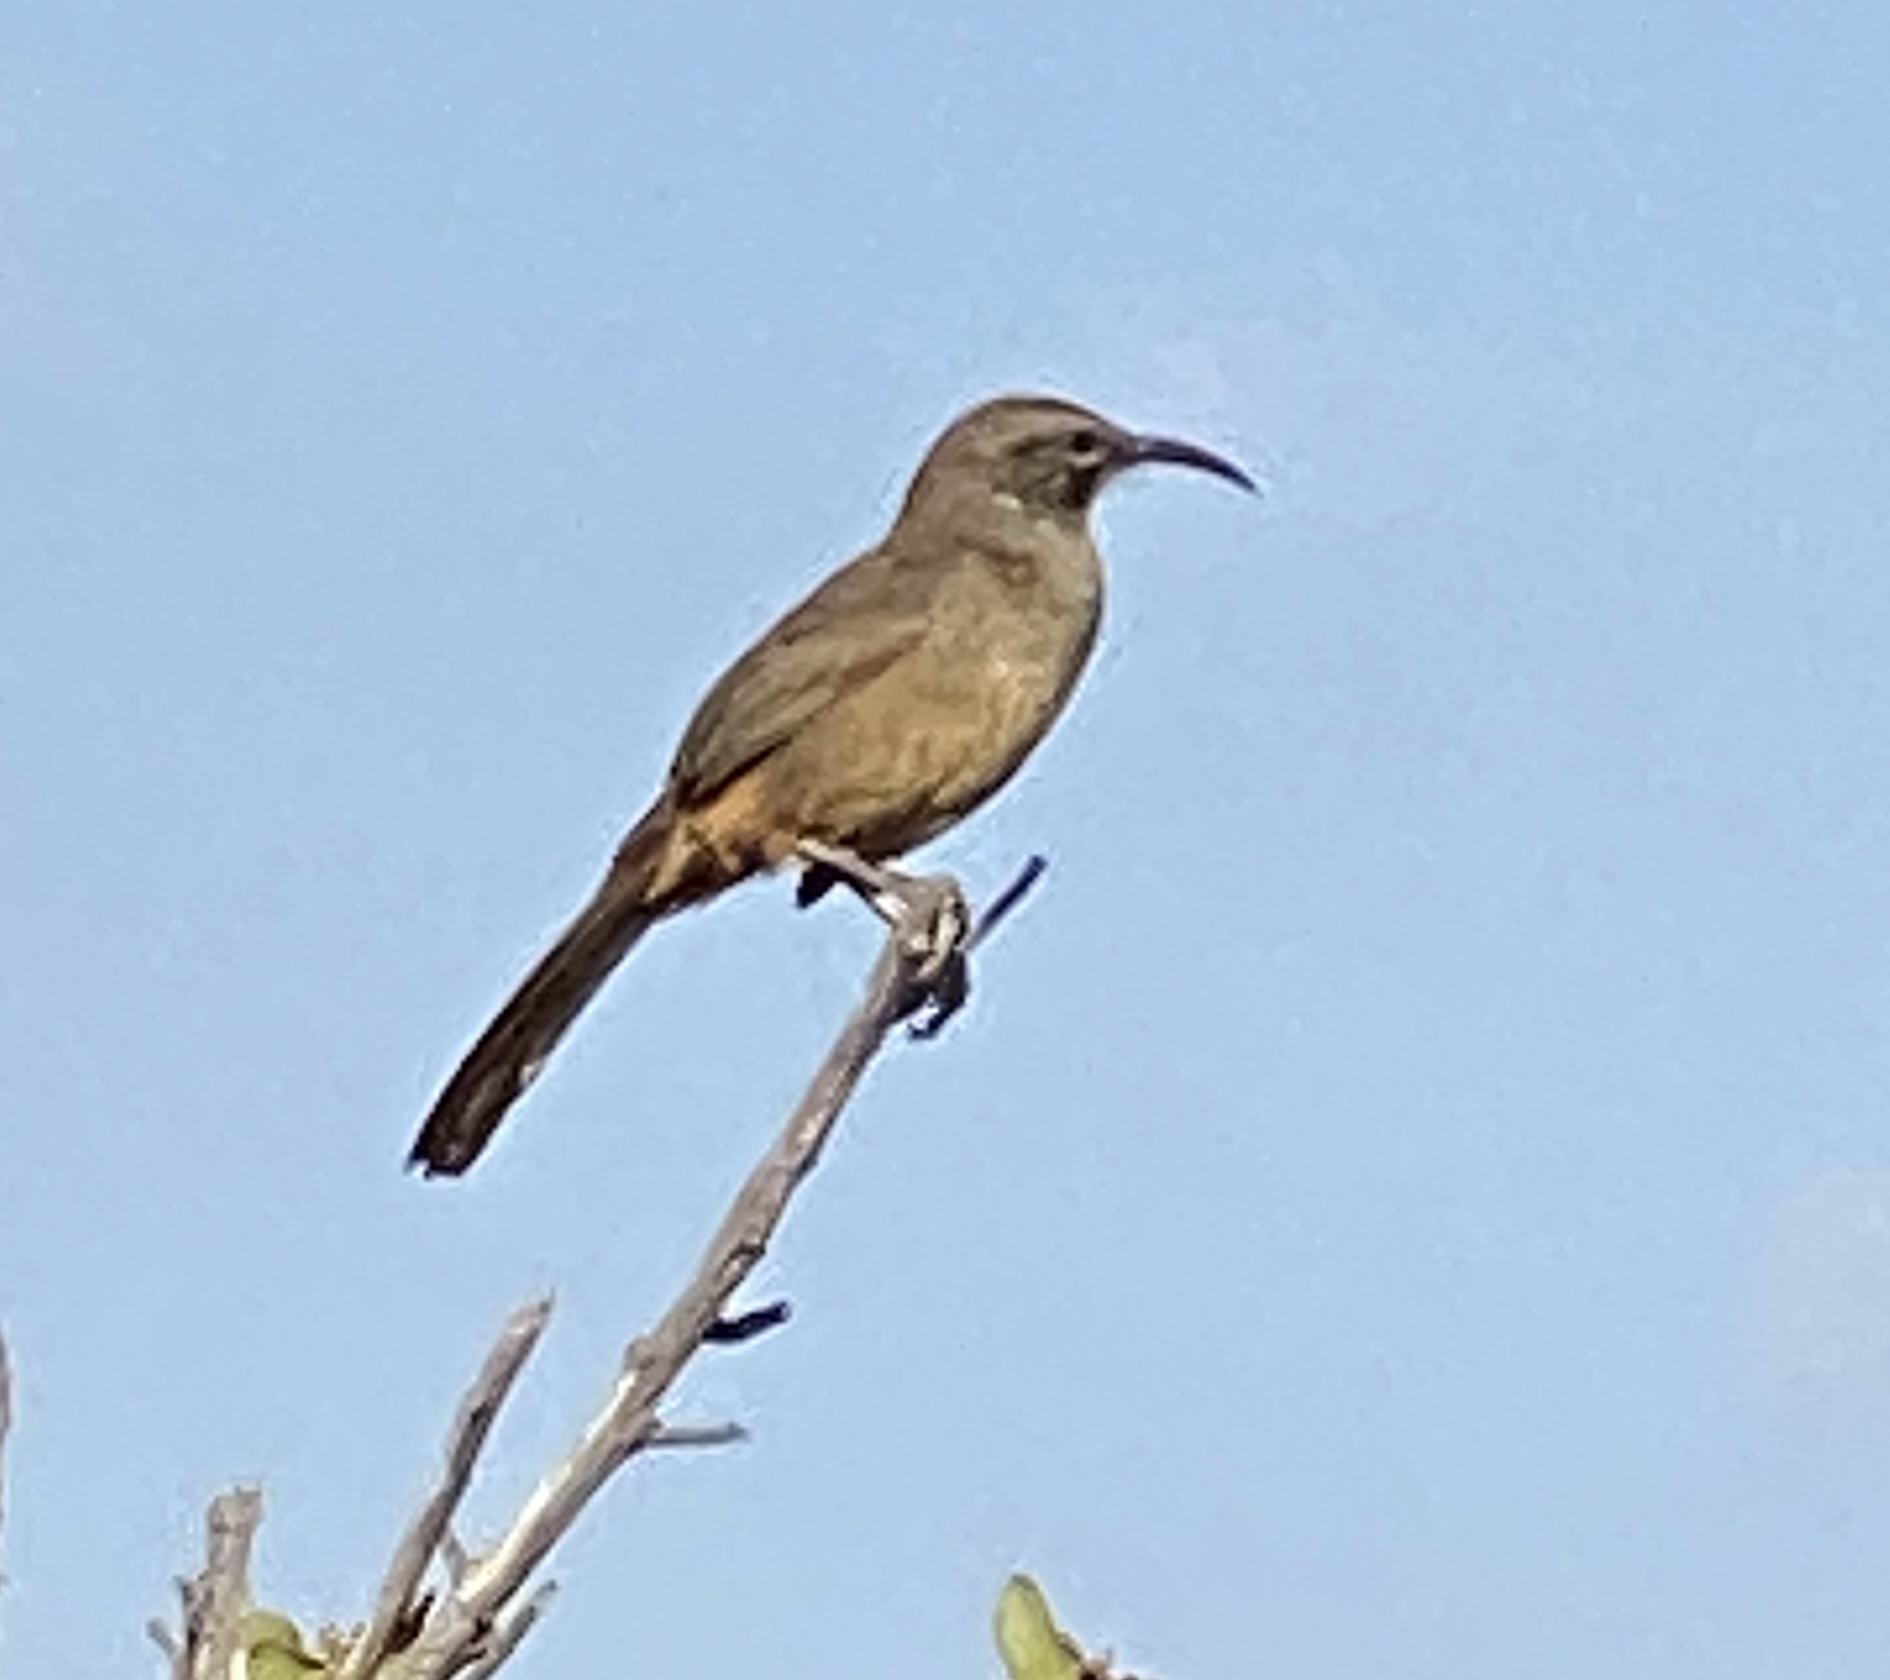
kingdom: Animalia
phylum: Chordata
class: Aves
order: Passeriformes
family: Mimidae
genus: Toxostoma
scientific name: Toxostoma redivivum
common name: California thrasher
